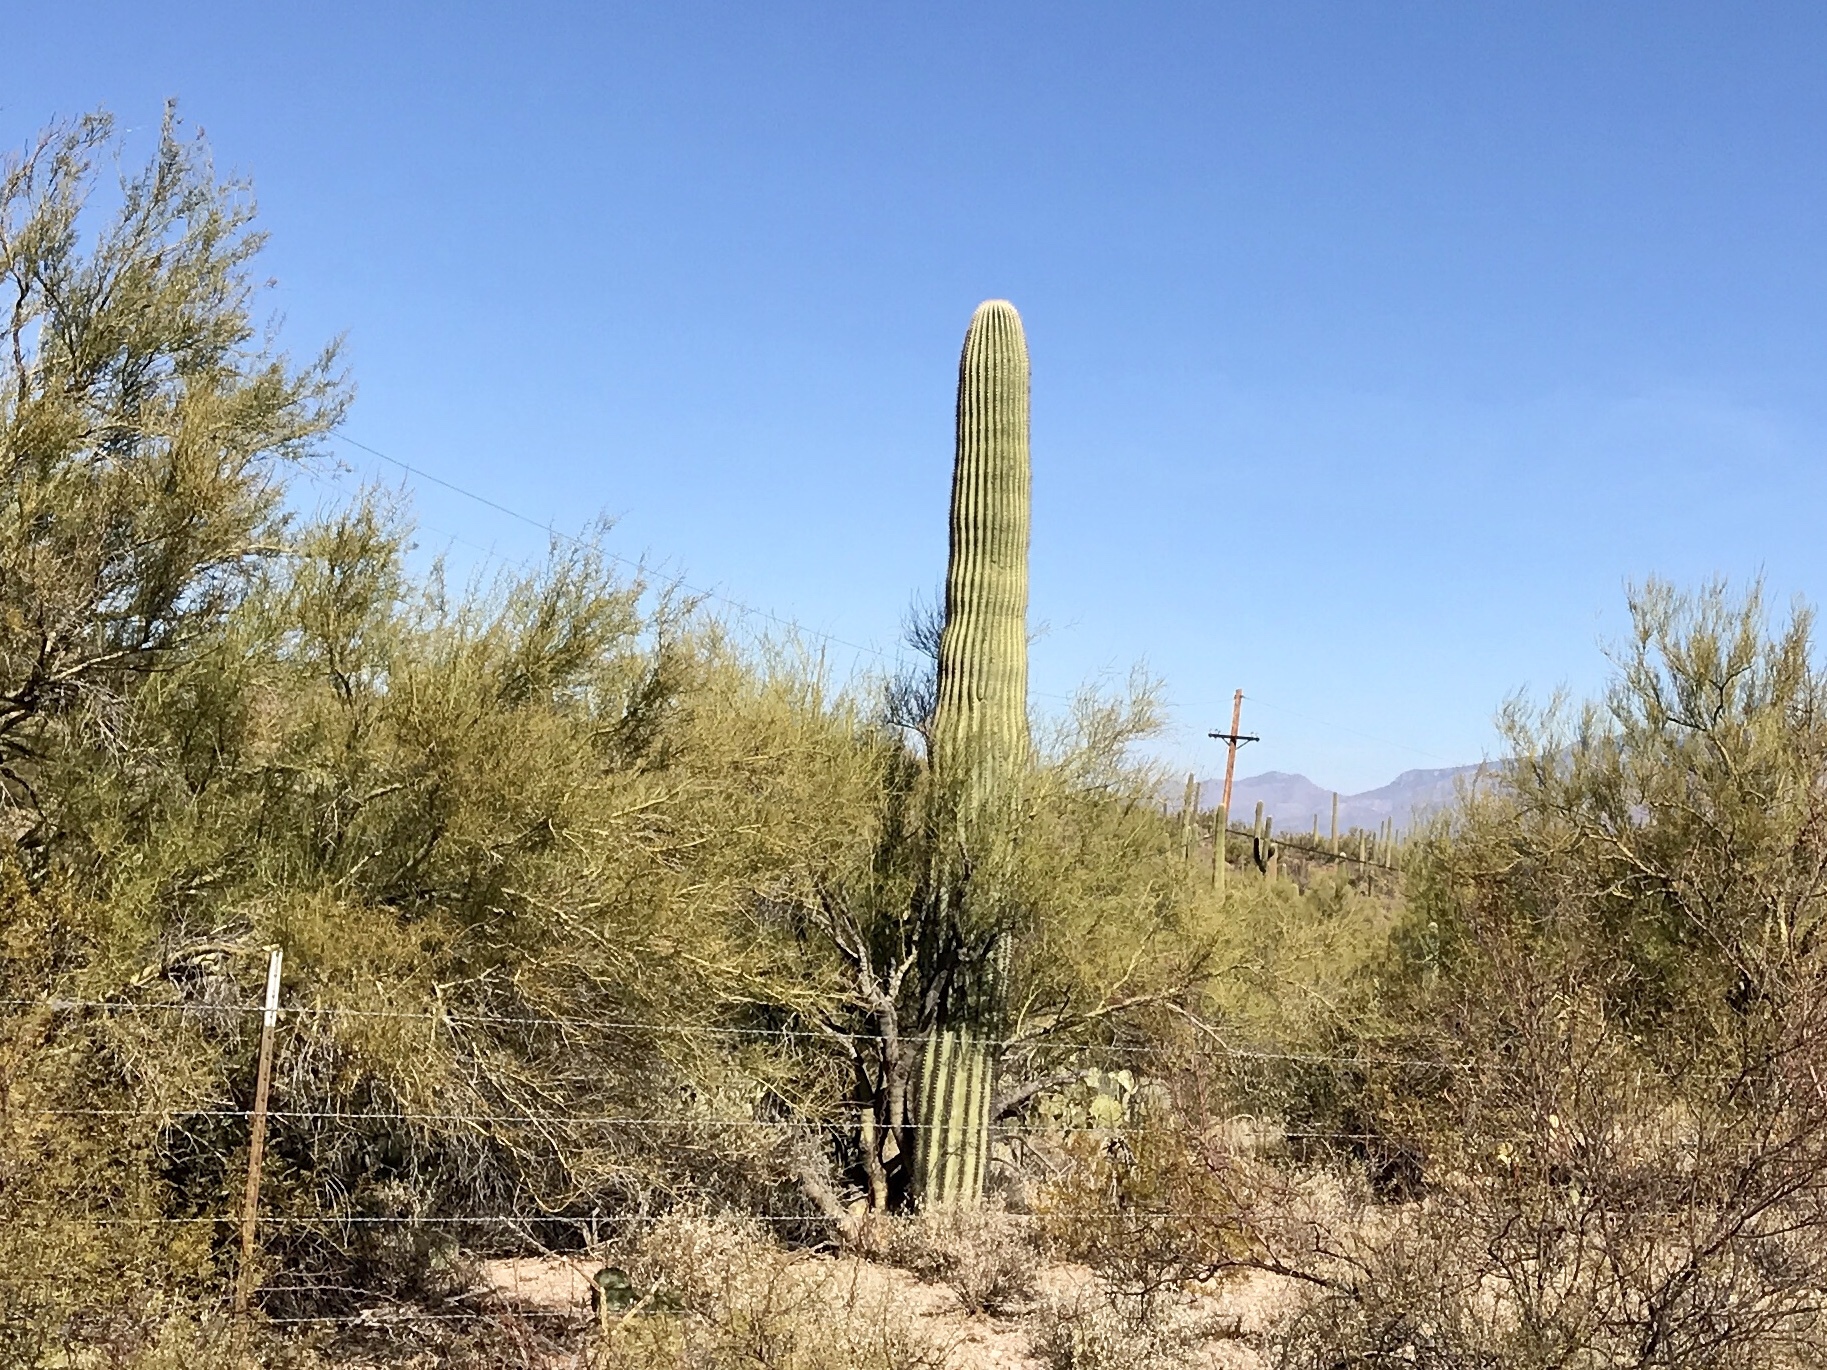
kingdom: Plantae
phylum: Tracheophyta
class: Magnoliopsida
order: Caryophyllales
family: Cactaceae
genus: Carnegiea
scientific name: Carnegiea gigantea
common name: Saguaro
